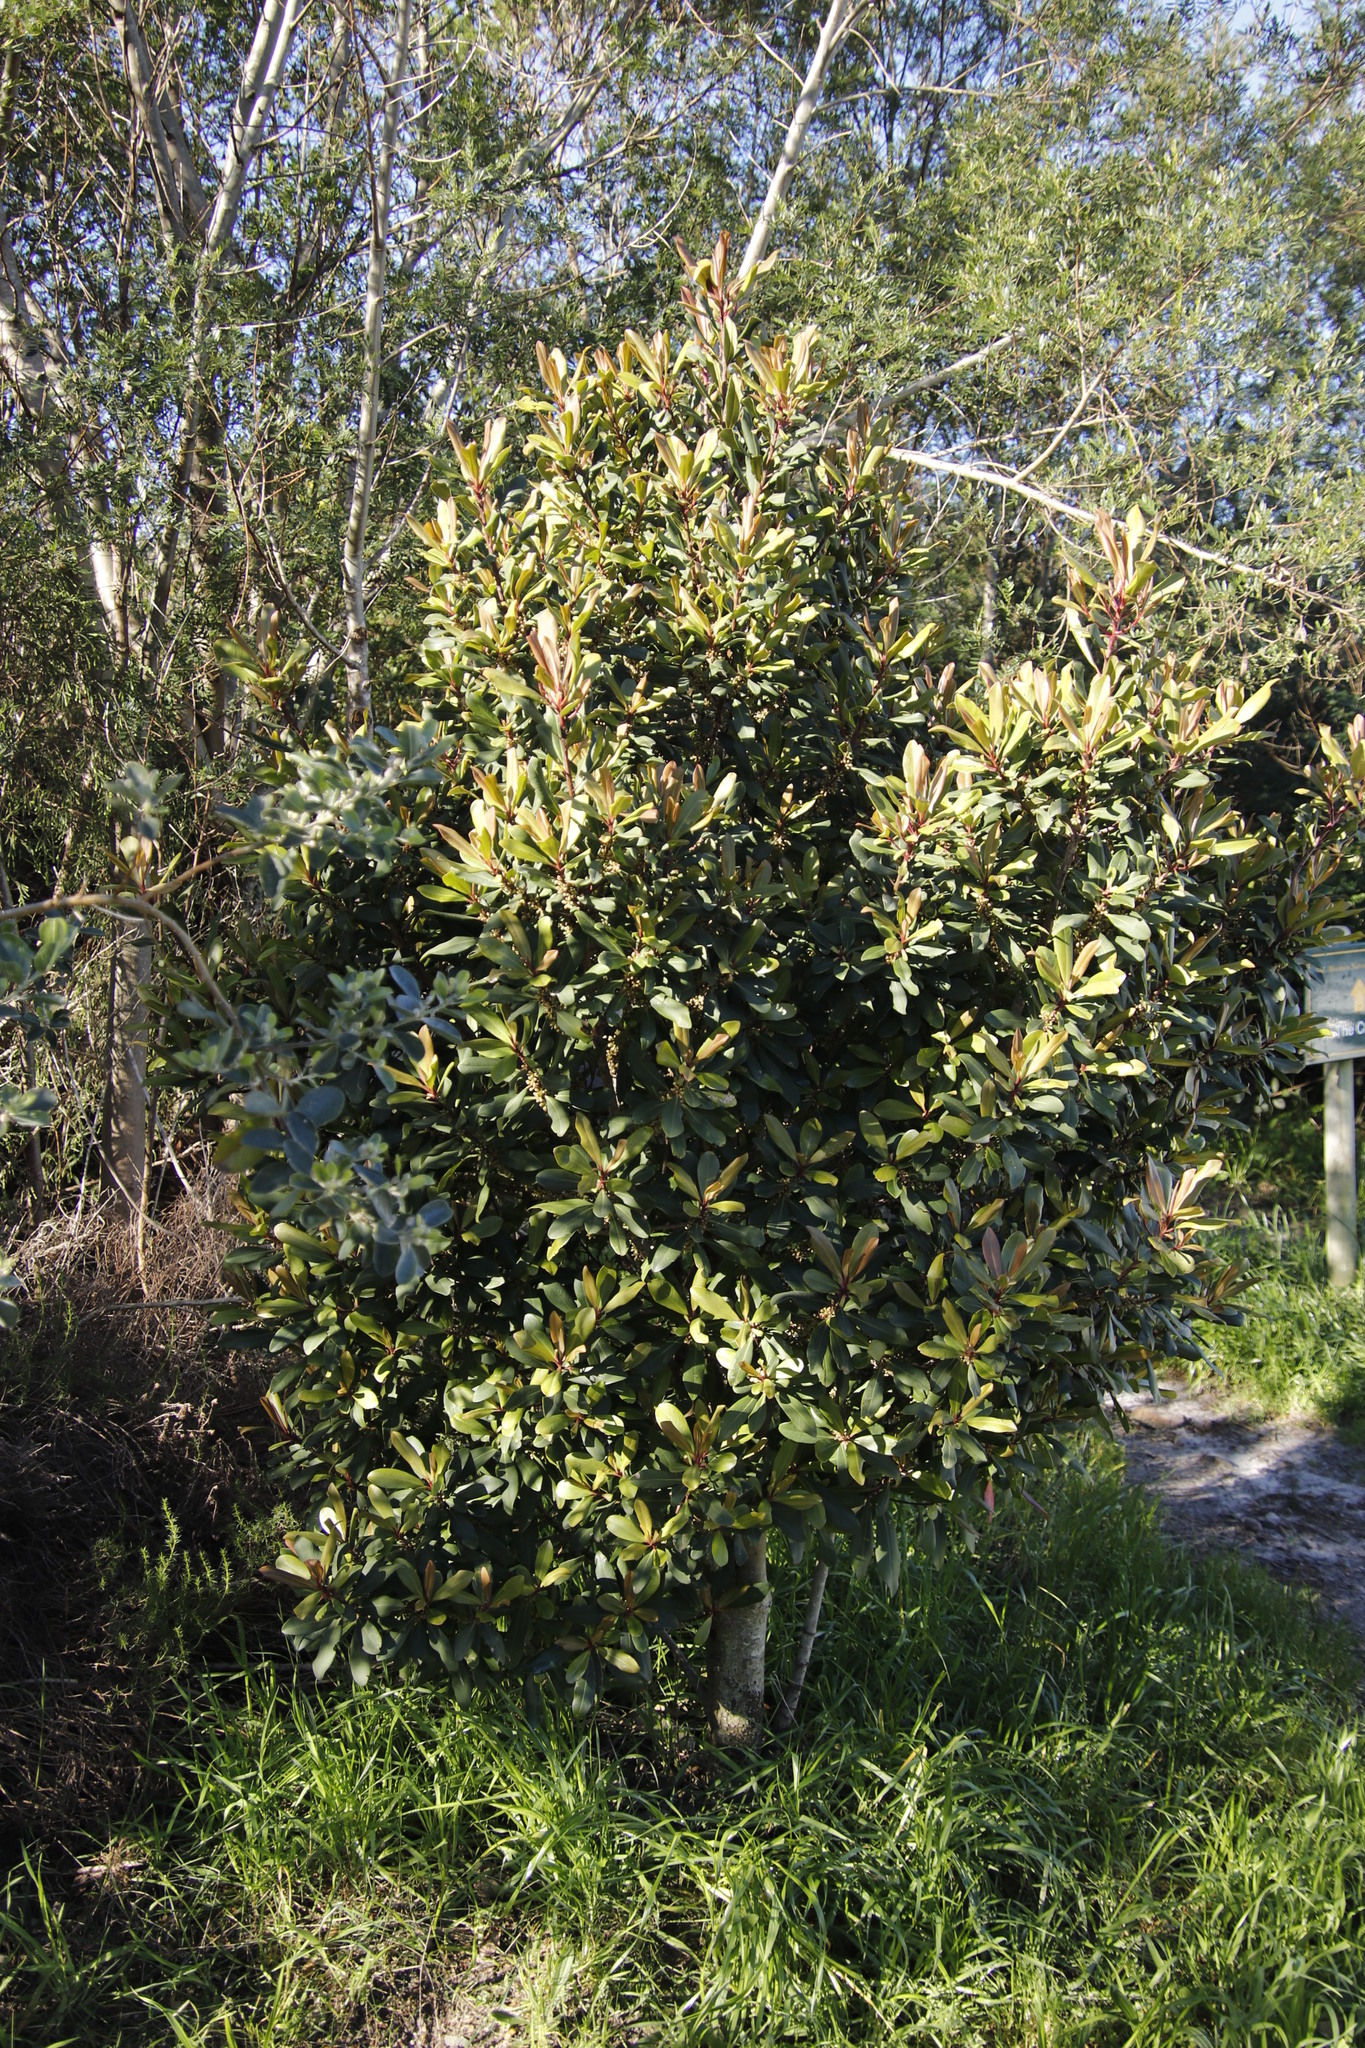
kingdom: Plantae
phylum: Tracheophyta
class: Magnoliopsida
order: Ericales
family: Primulaceae
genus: Myrsine
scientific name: Myrsine melanophloeos
